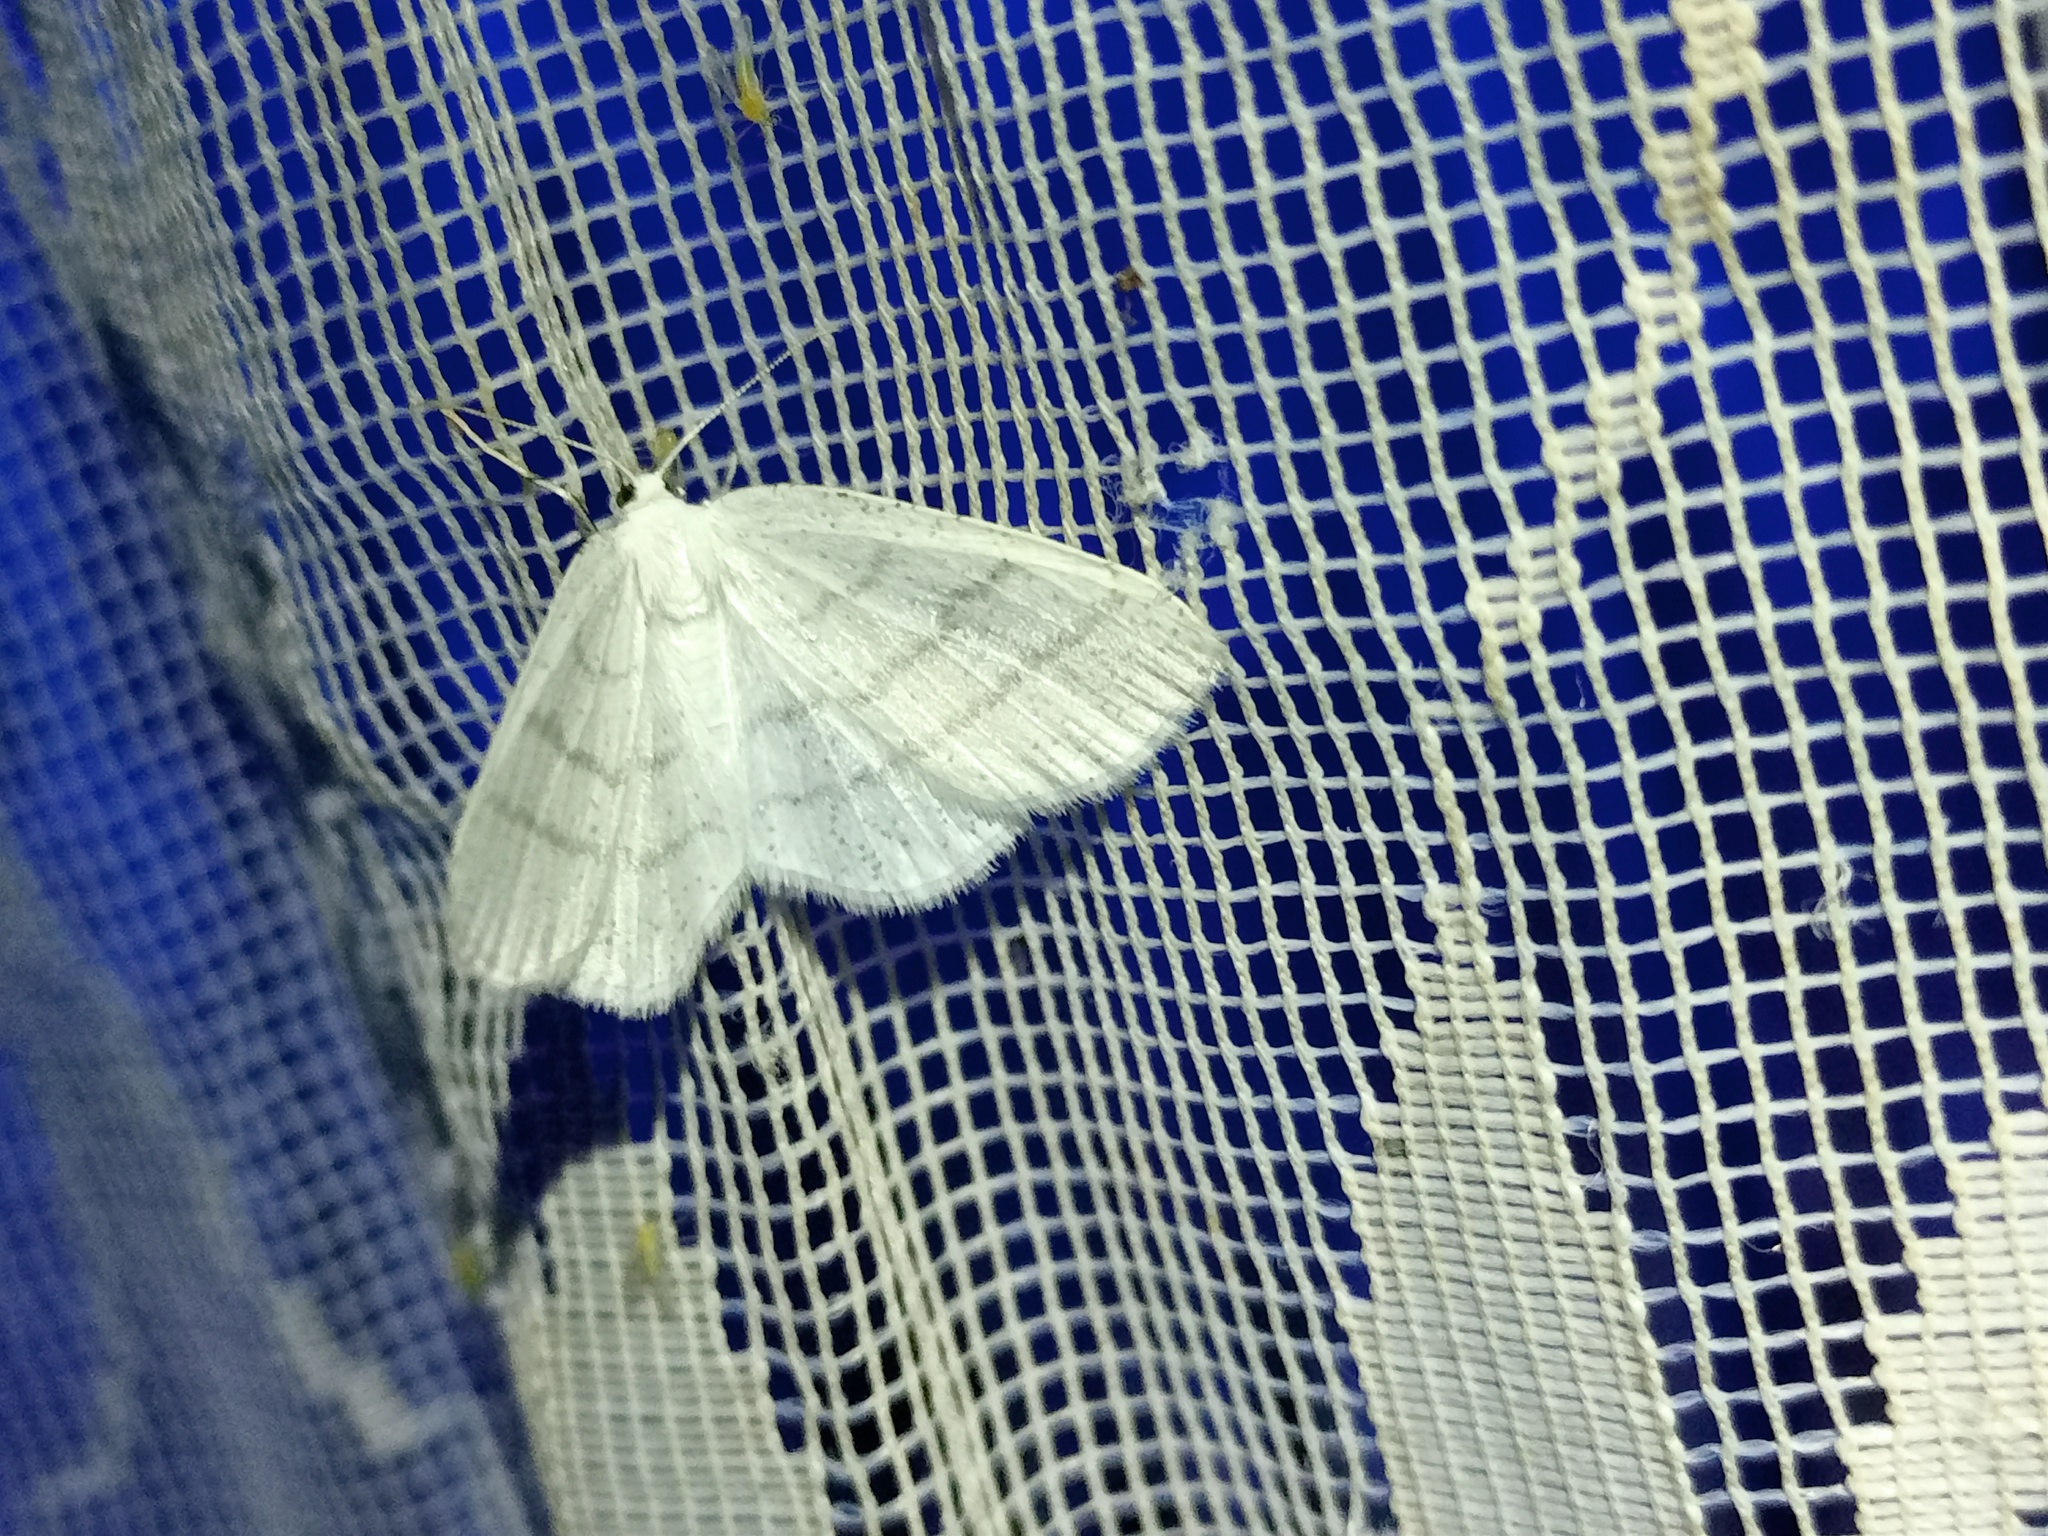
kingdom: Animalia
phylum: Arthropoda
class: Insecta
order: Lepidoptera
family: Geometridae
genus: Cabera
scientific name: Cabera pusaria
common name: Common white wave
